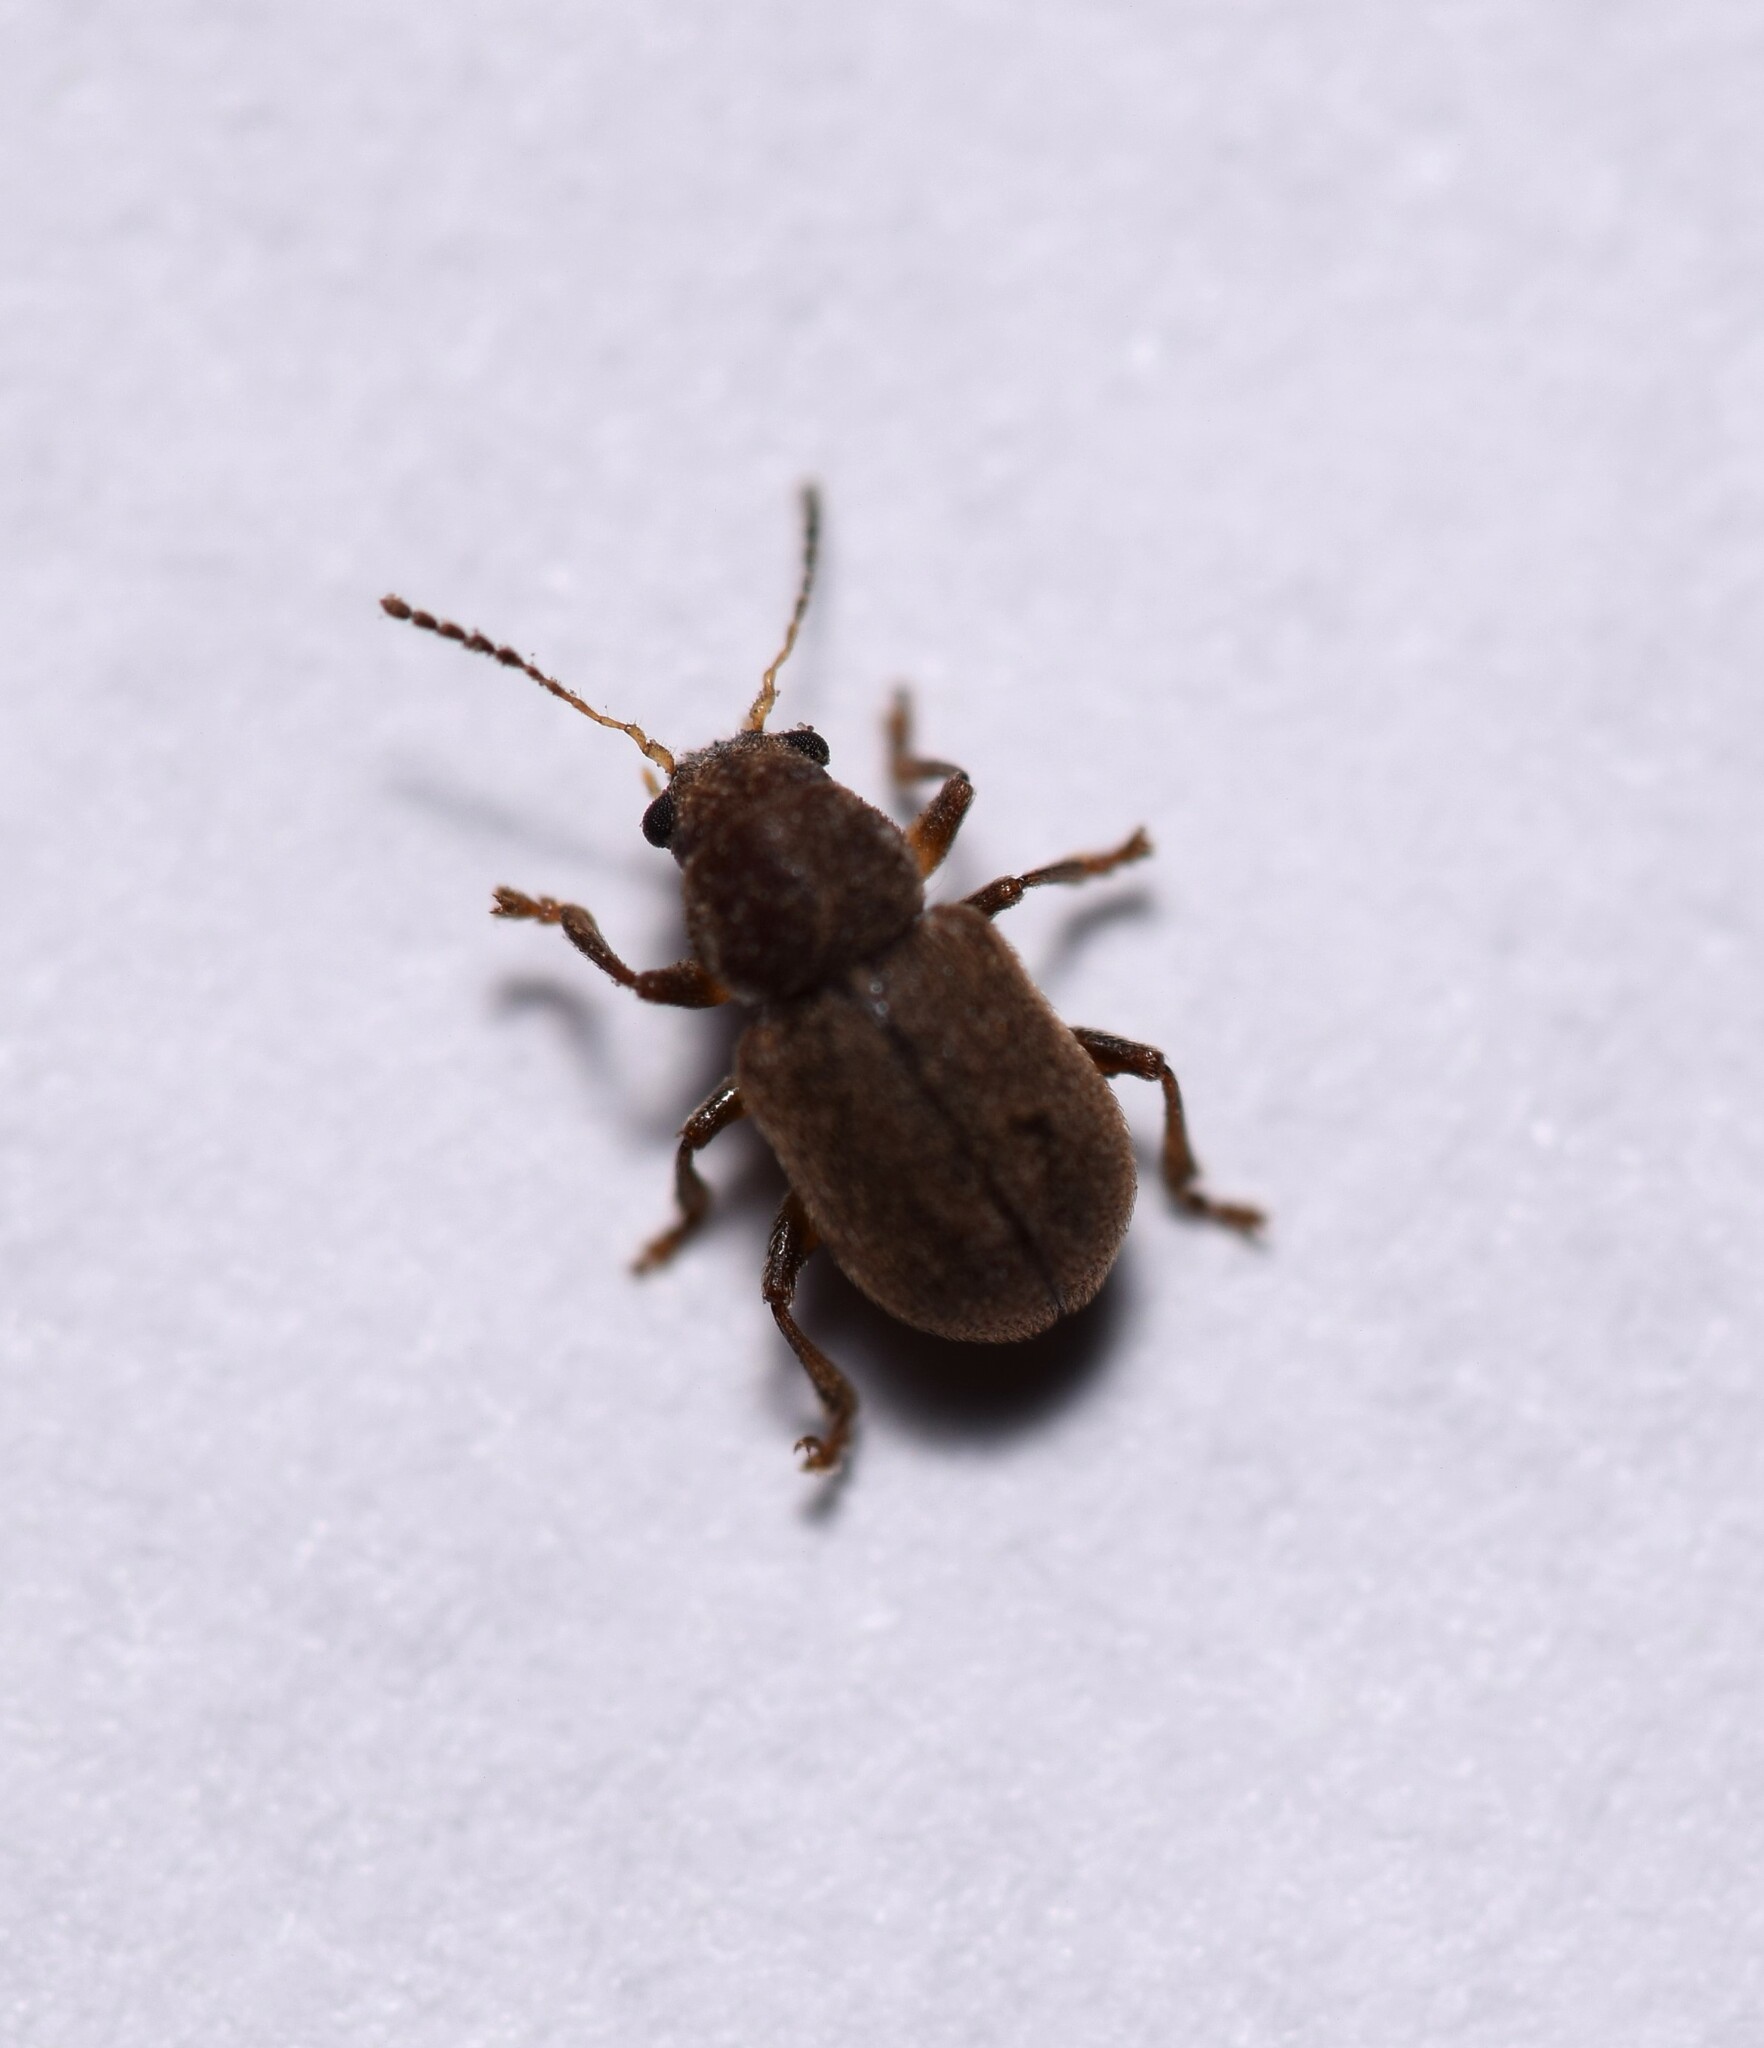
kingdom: Animalia
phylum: Arthropoda
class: Insecta
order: Coleoptera
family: Chrysomelidae
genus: Xanthonia
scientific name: Xanthonia hirsuta
